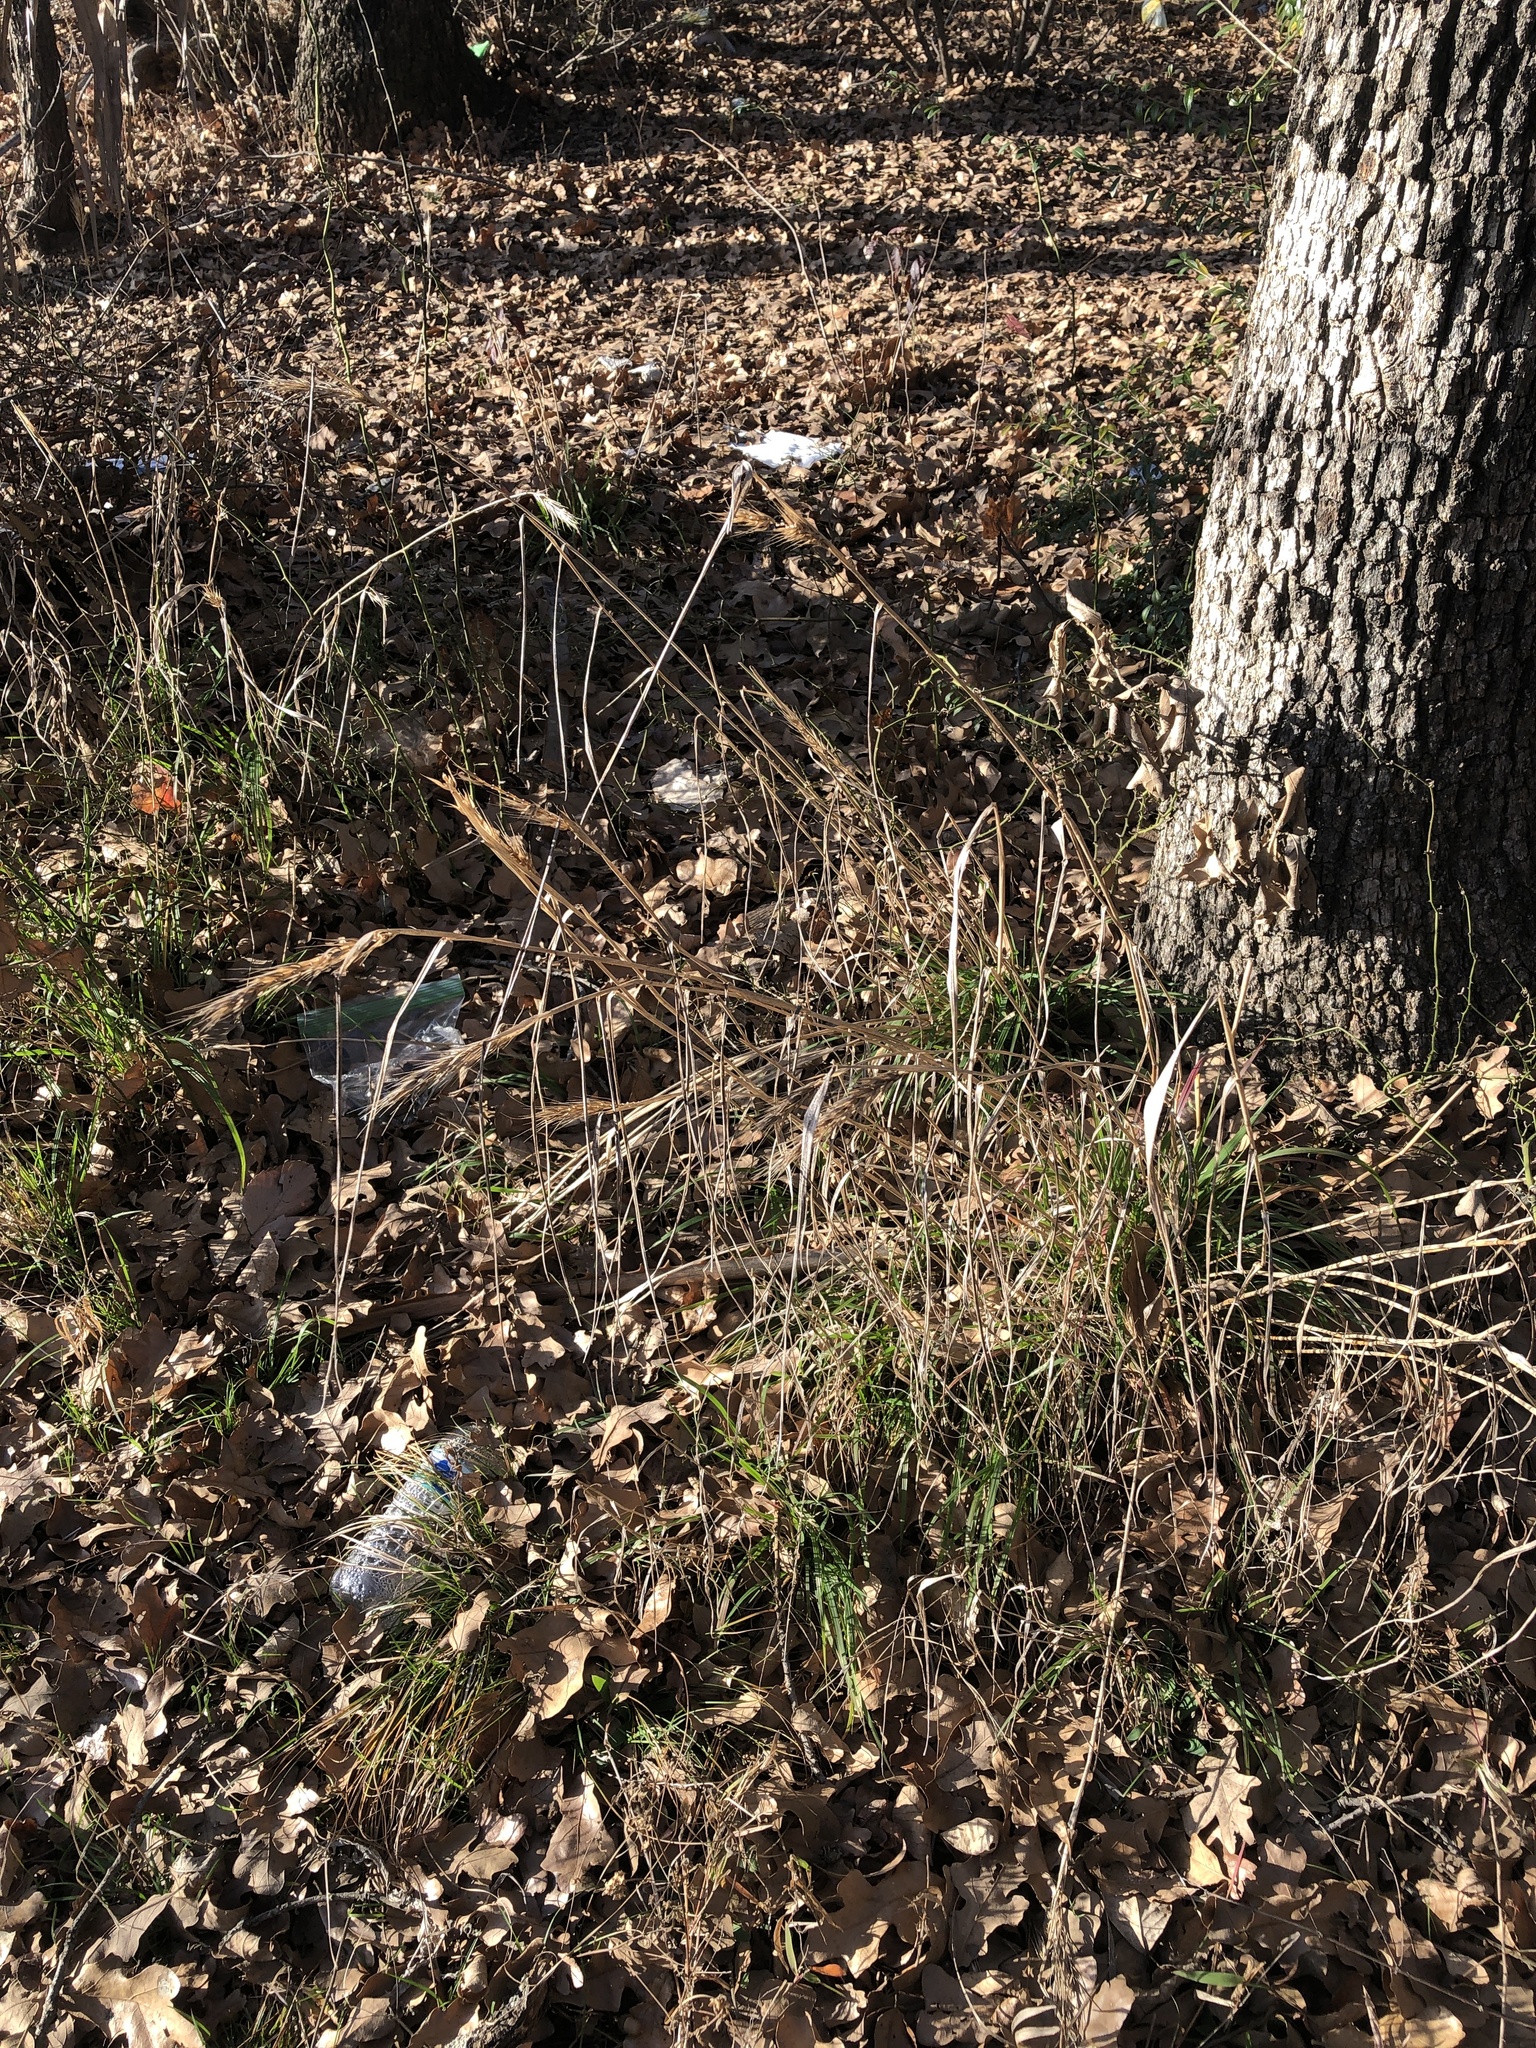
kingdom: Plantae
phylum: Tracheophyta
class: Liliopsida
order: Poales
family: Poaceae
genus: Elymus
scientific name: Elymus virginicus
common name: Common eastern wildrye
